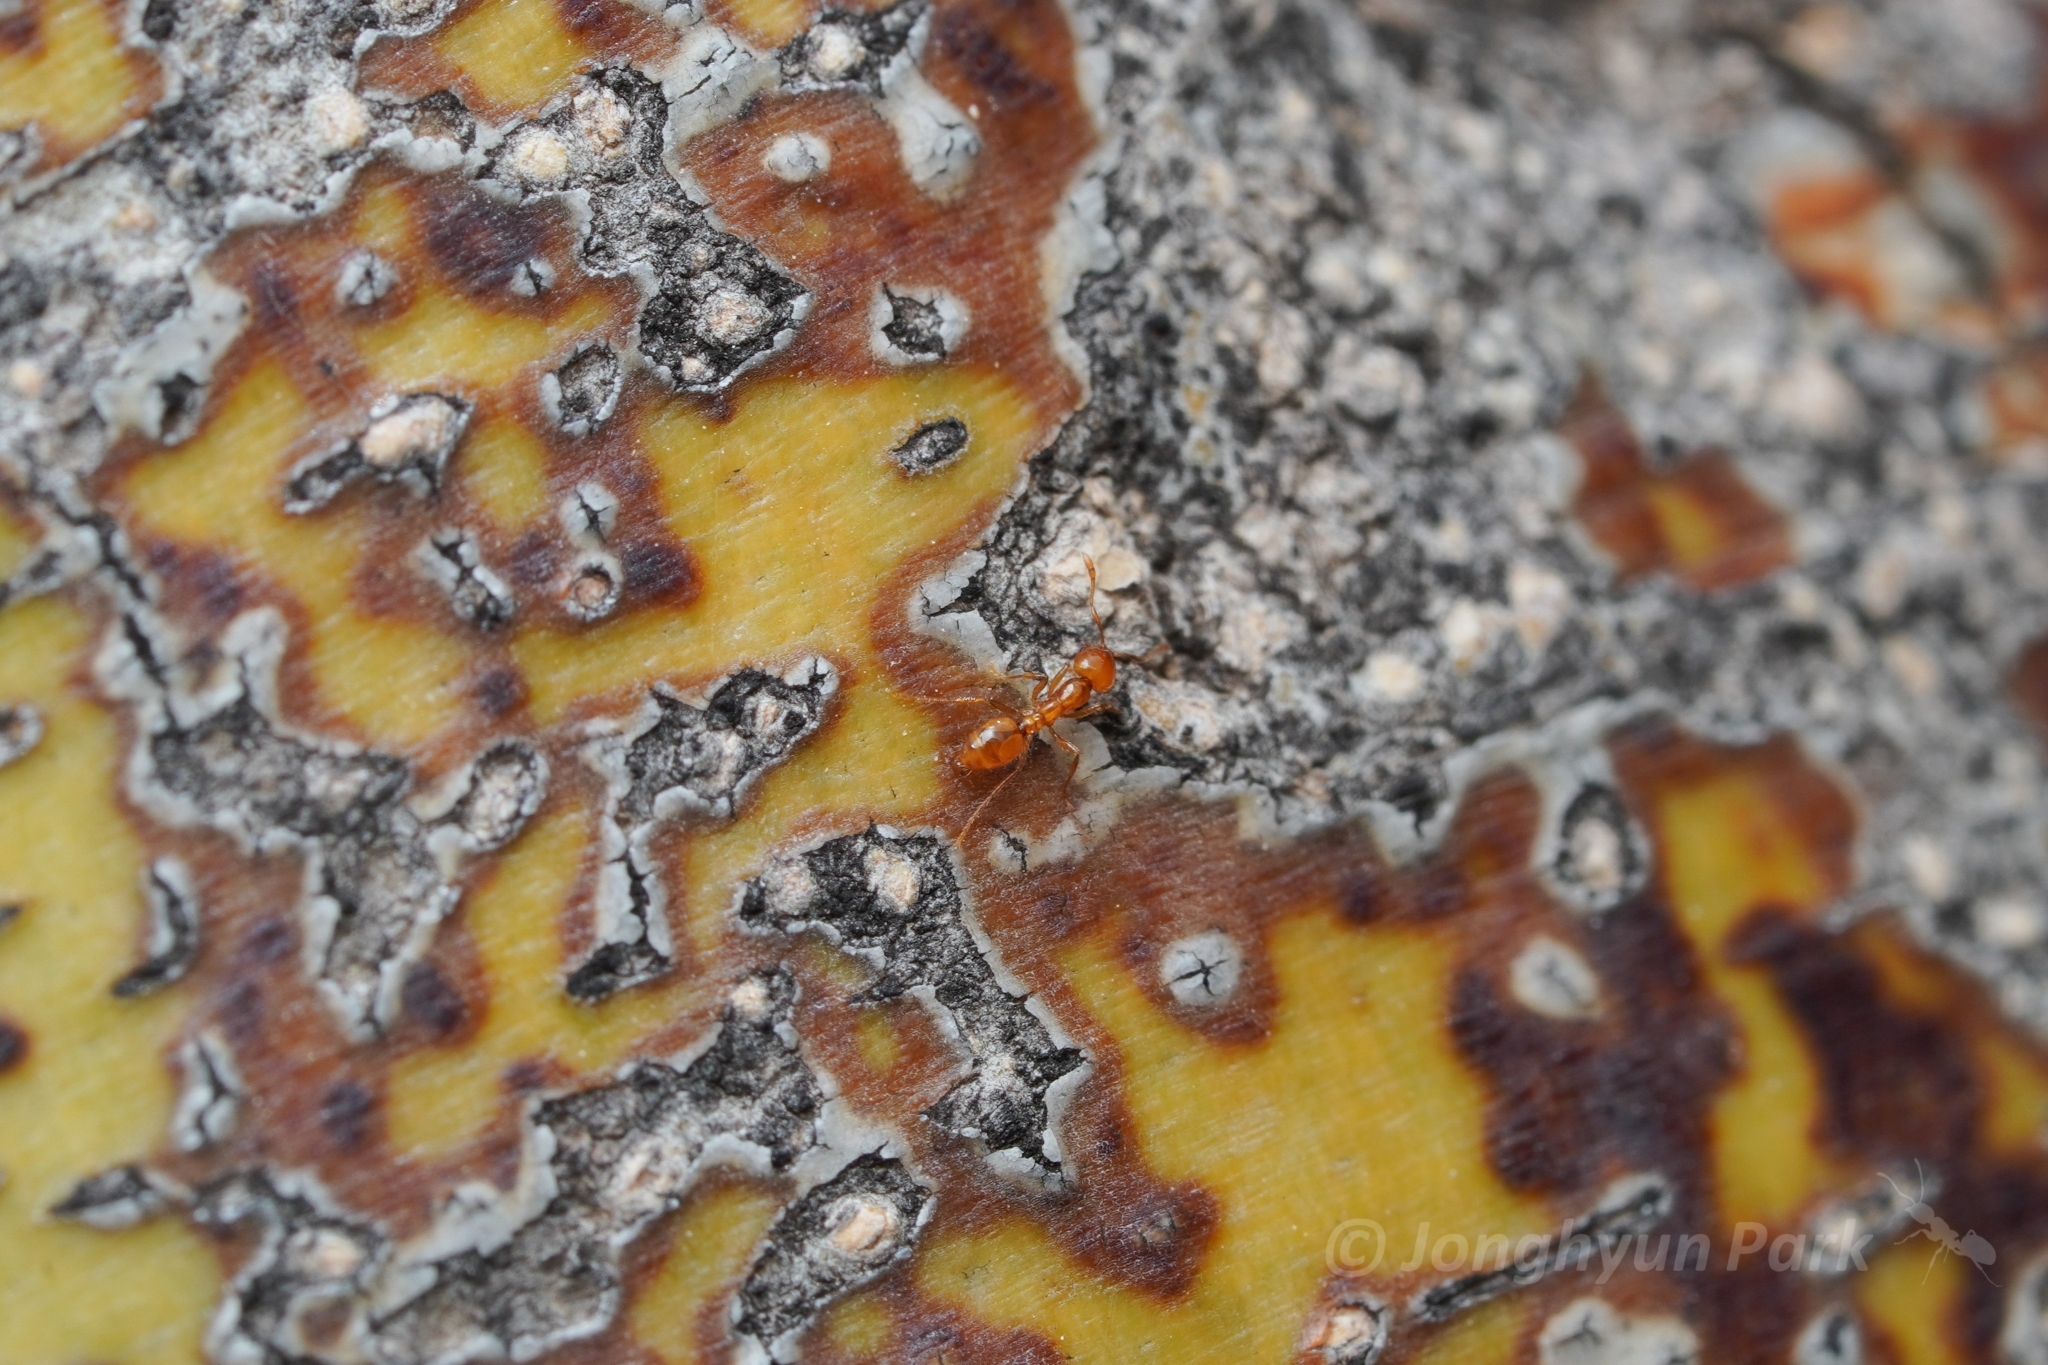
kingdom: Animalia
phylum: Arthropoda
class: Insecta
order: Hymenoptera
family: Formicidae
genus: Solenopsis
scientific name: Solenopsis
